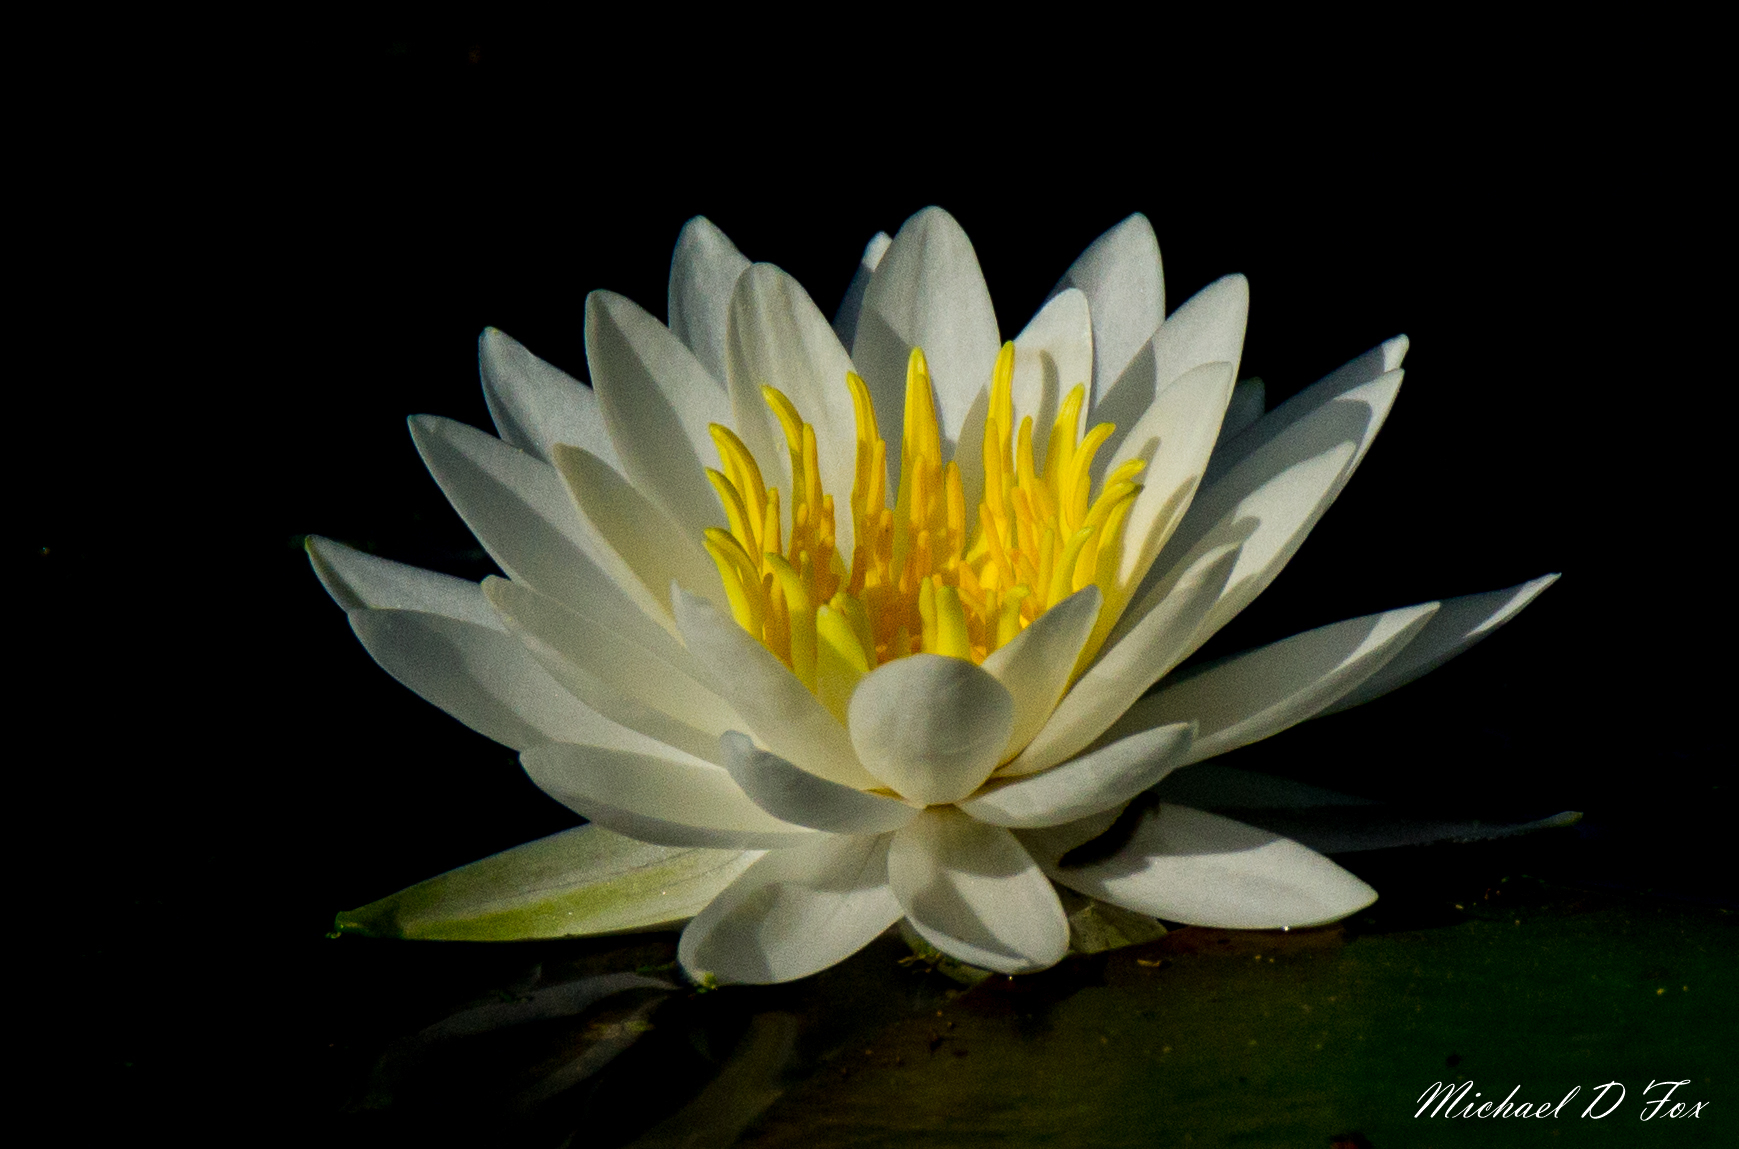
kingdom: Plantae
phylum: Tracheophyta
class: Magnoliopsida
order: Nymphaeales
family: Nymphaeaceae
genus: Nymphaea
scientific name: Nymphaea odorata
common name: Fragrant water-lily
